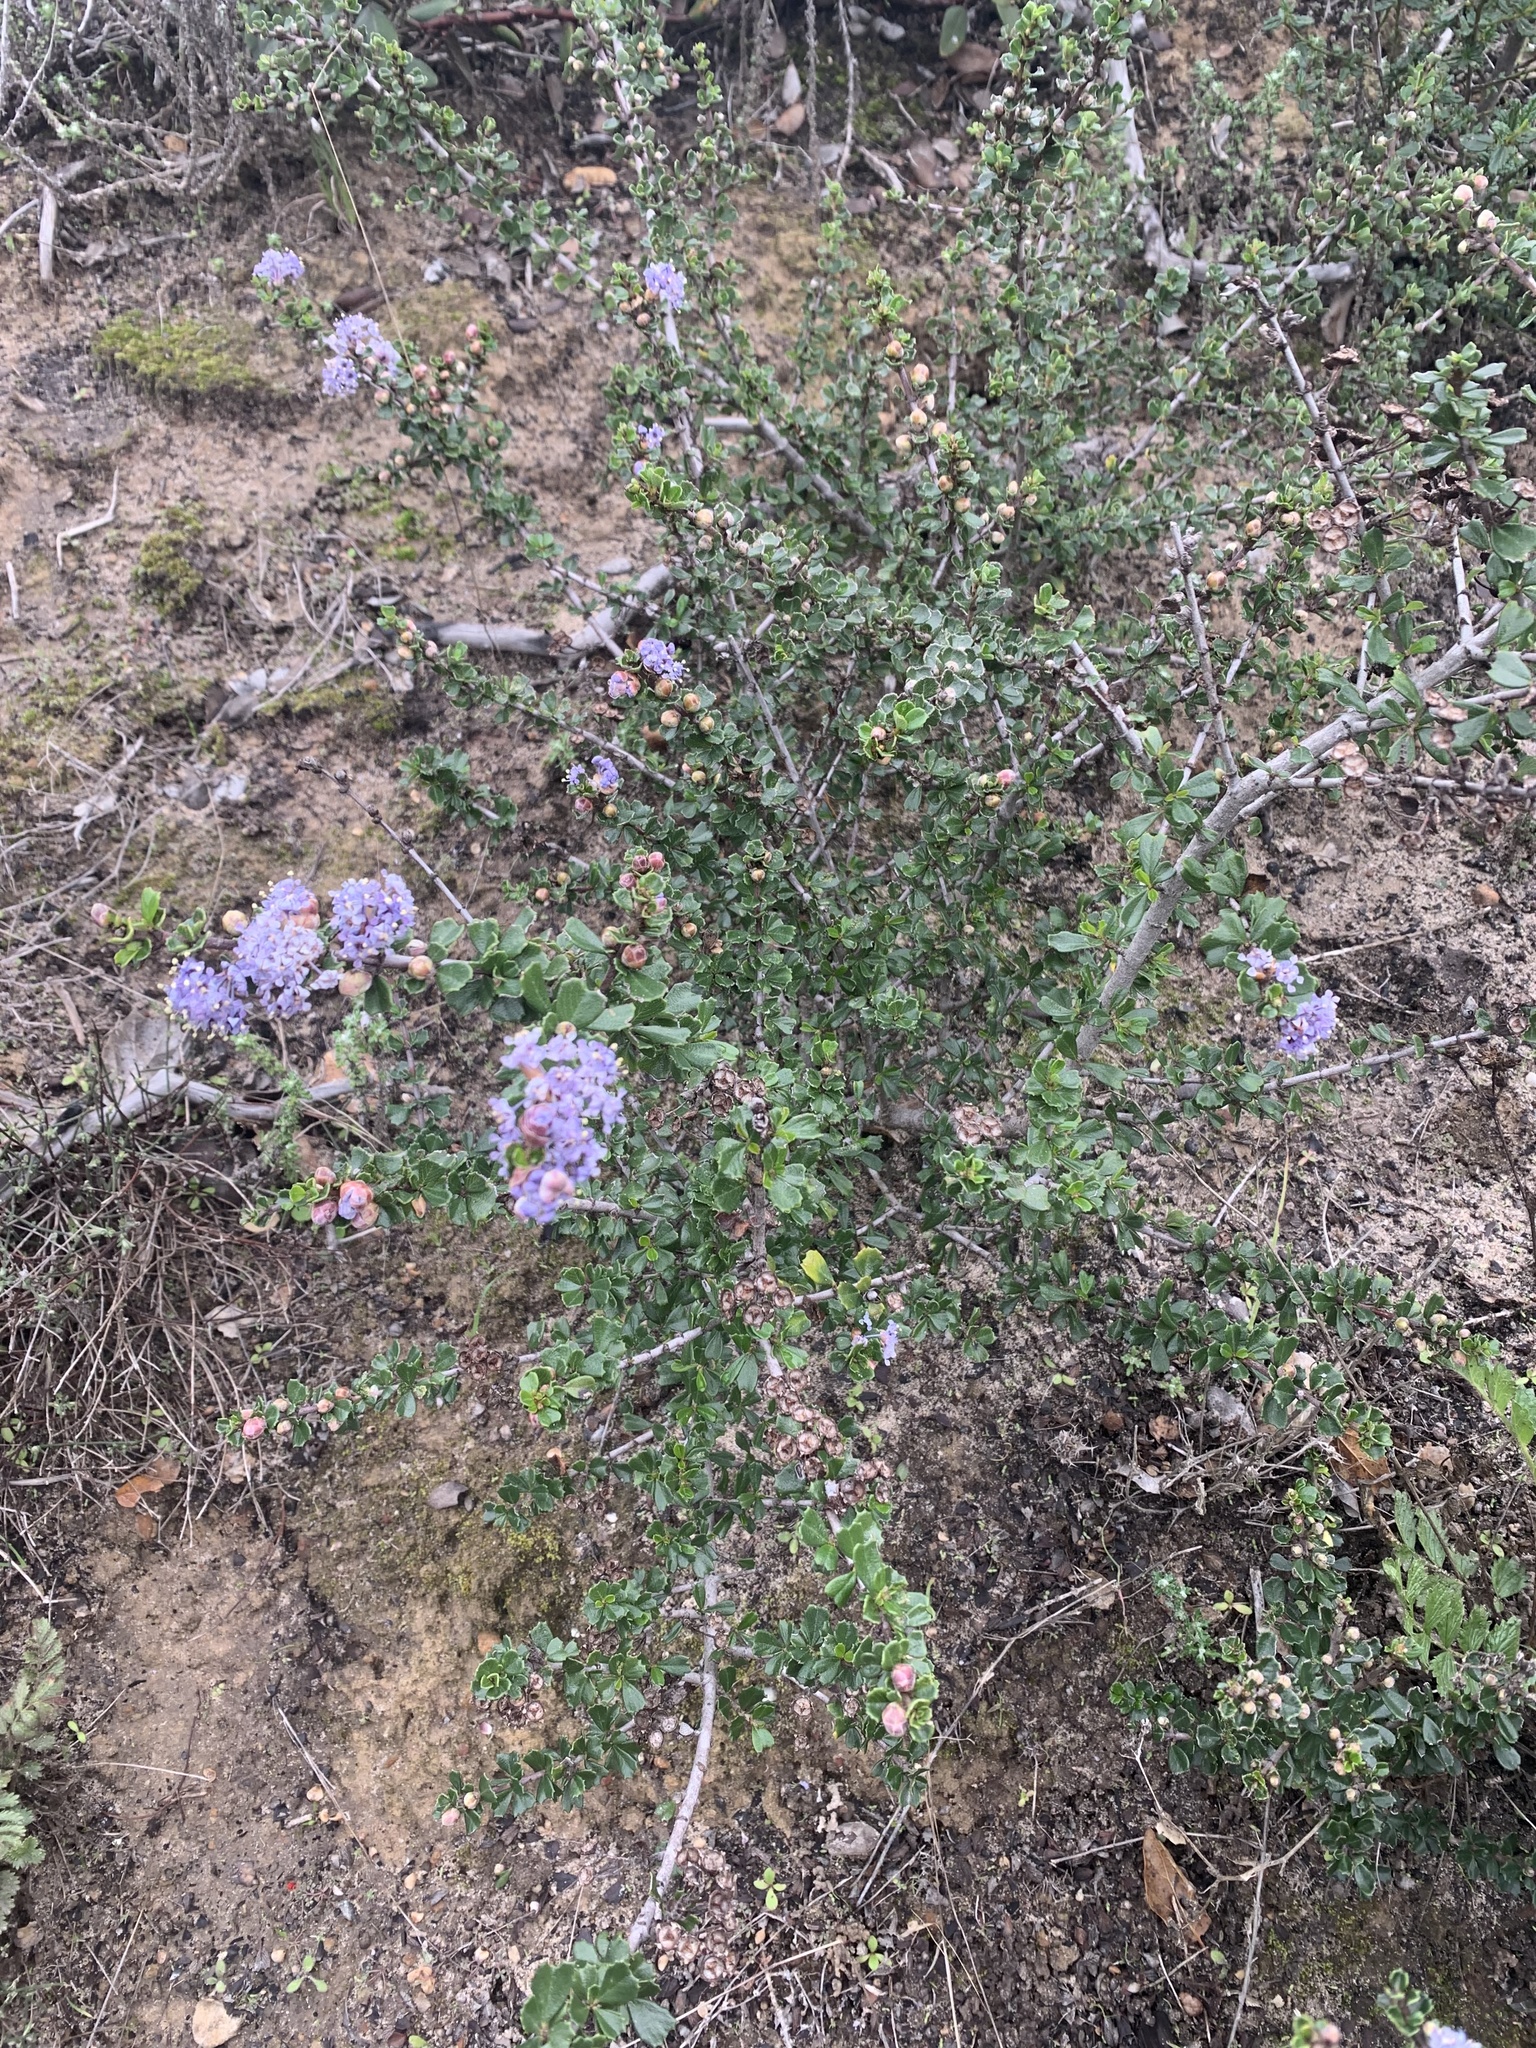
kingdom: Plantae
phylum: Tracheophyta
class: Magnoliopsida
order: Rosales
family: Rhamnaceae
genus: Ceanothus
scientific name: Ceanothus cuneatus
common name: Cuneate ceanothus
